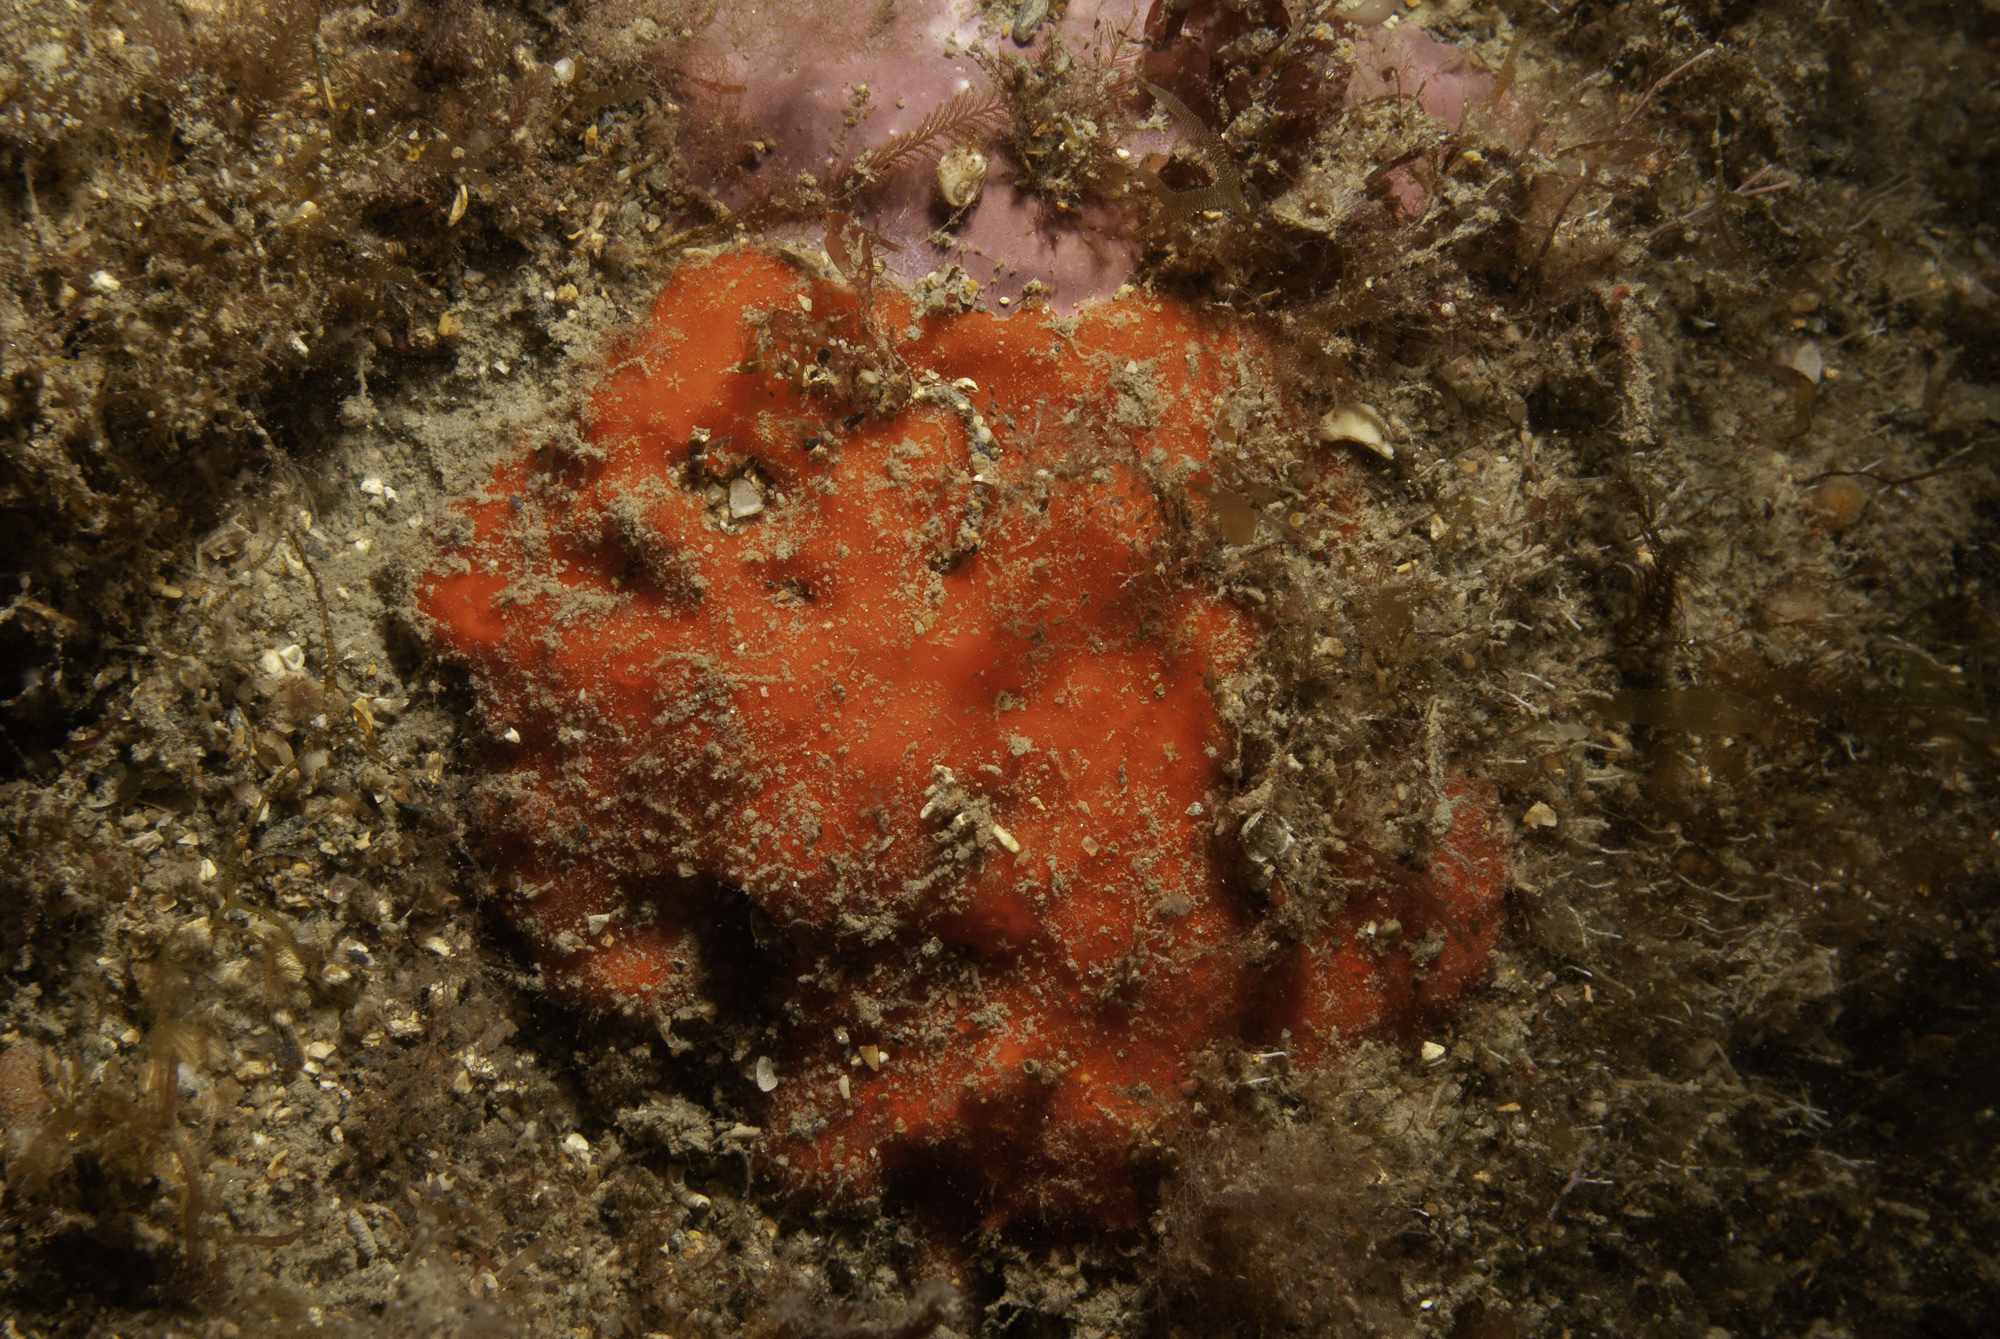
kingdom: Animalia
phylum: Porifera
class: Demospongiae
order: Axinellida
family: Raspailiidae
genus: Raspaciona
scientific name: Raspaciona aculeata
